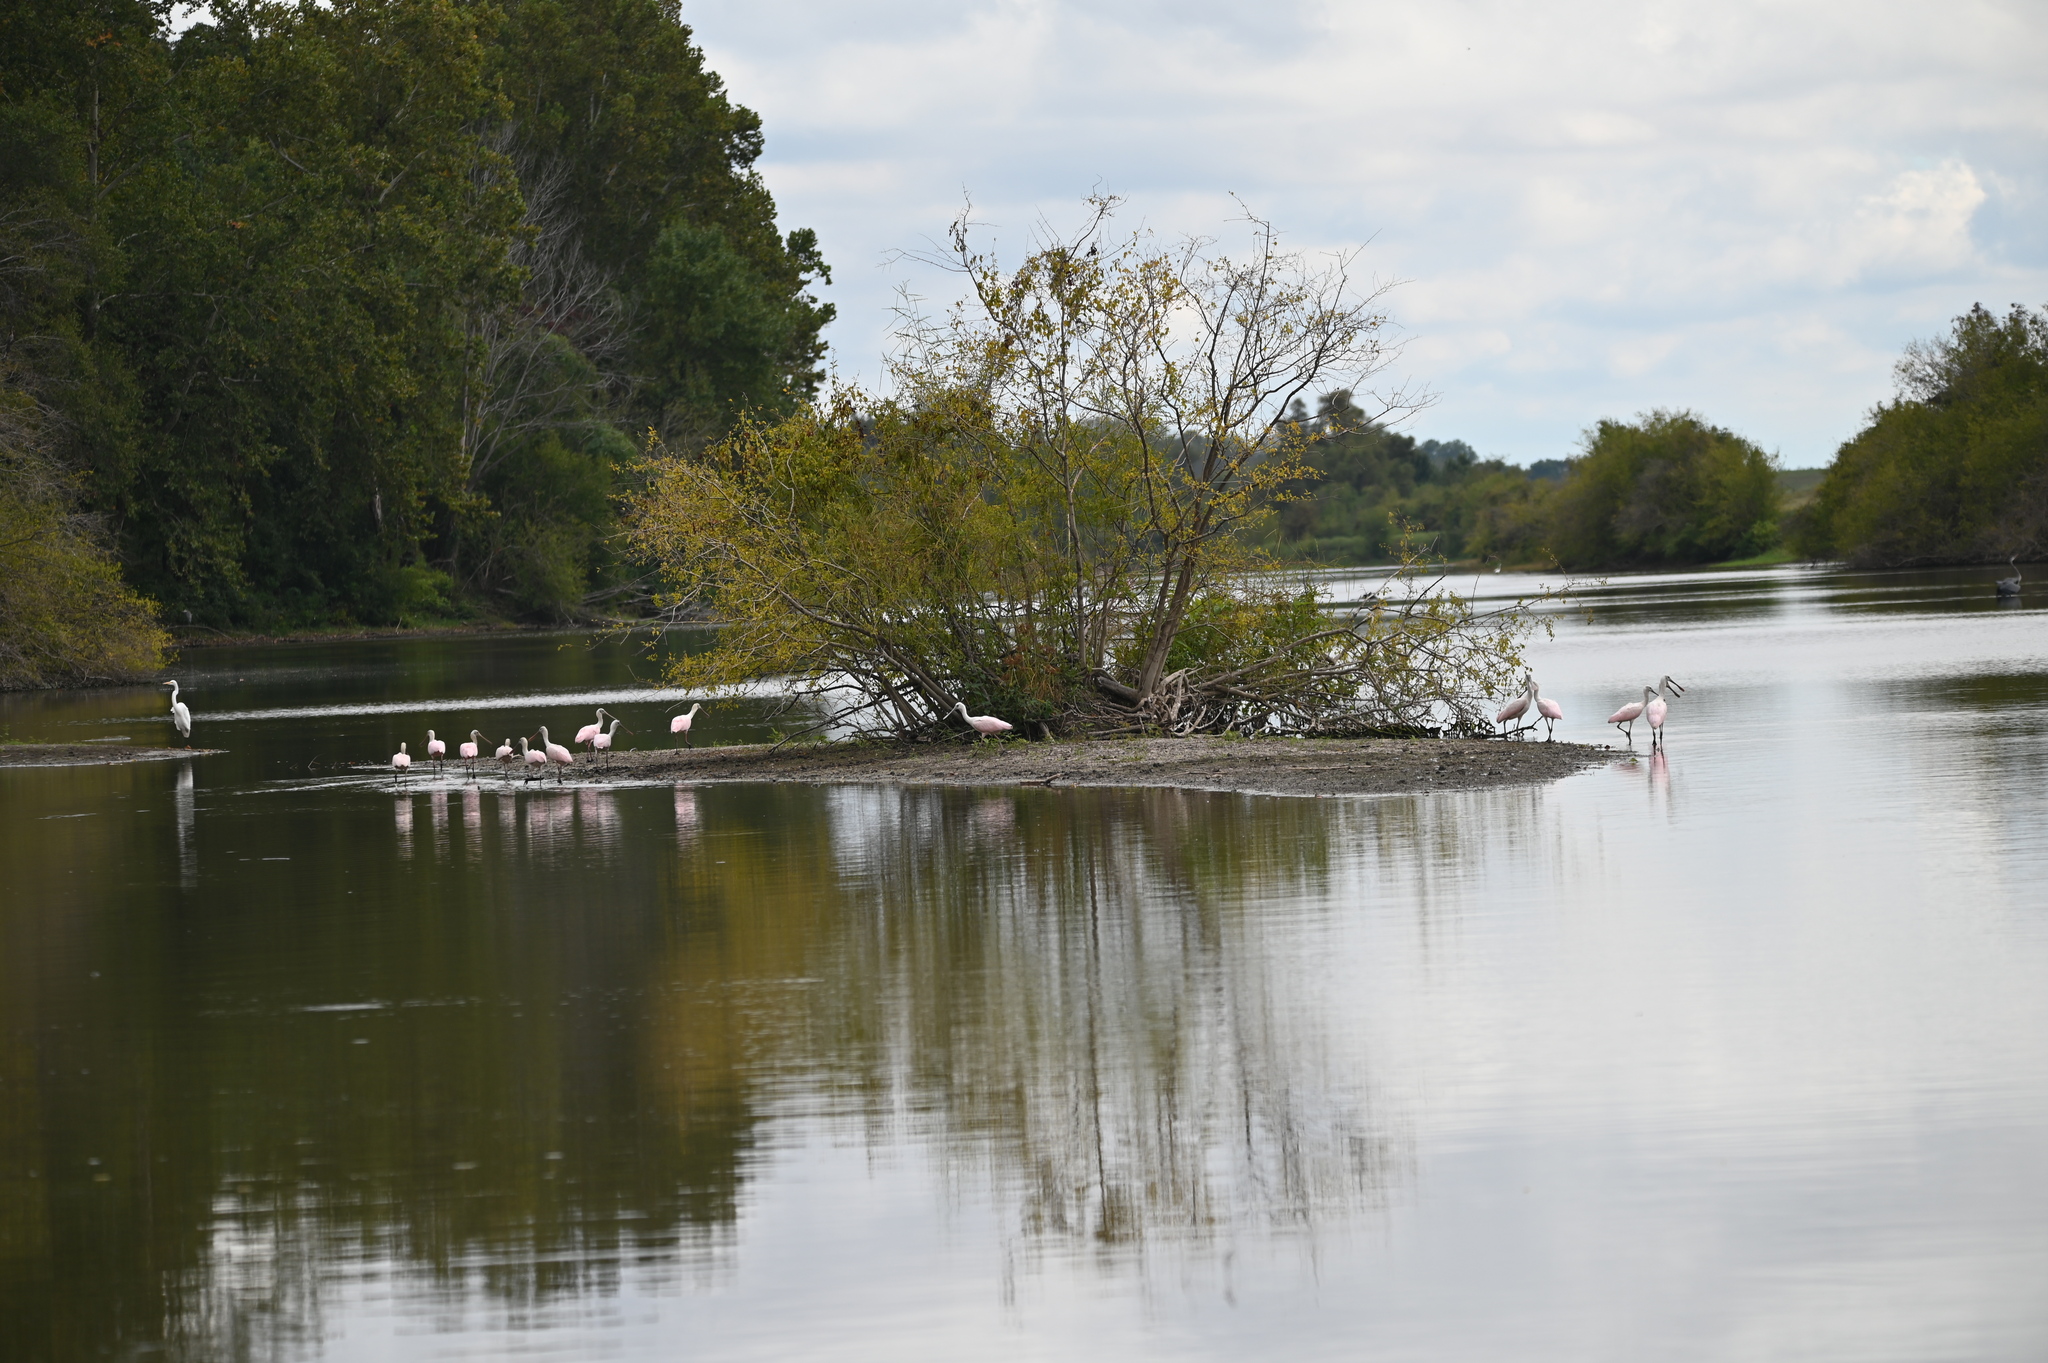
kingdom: Animalia
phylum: Chordata
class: Aves
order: Pelecaniformes
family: Threskiornithidae
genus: Platalea
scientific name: Platalea ajaja
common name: Roseate spoonbill
